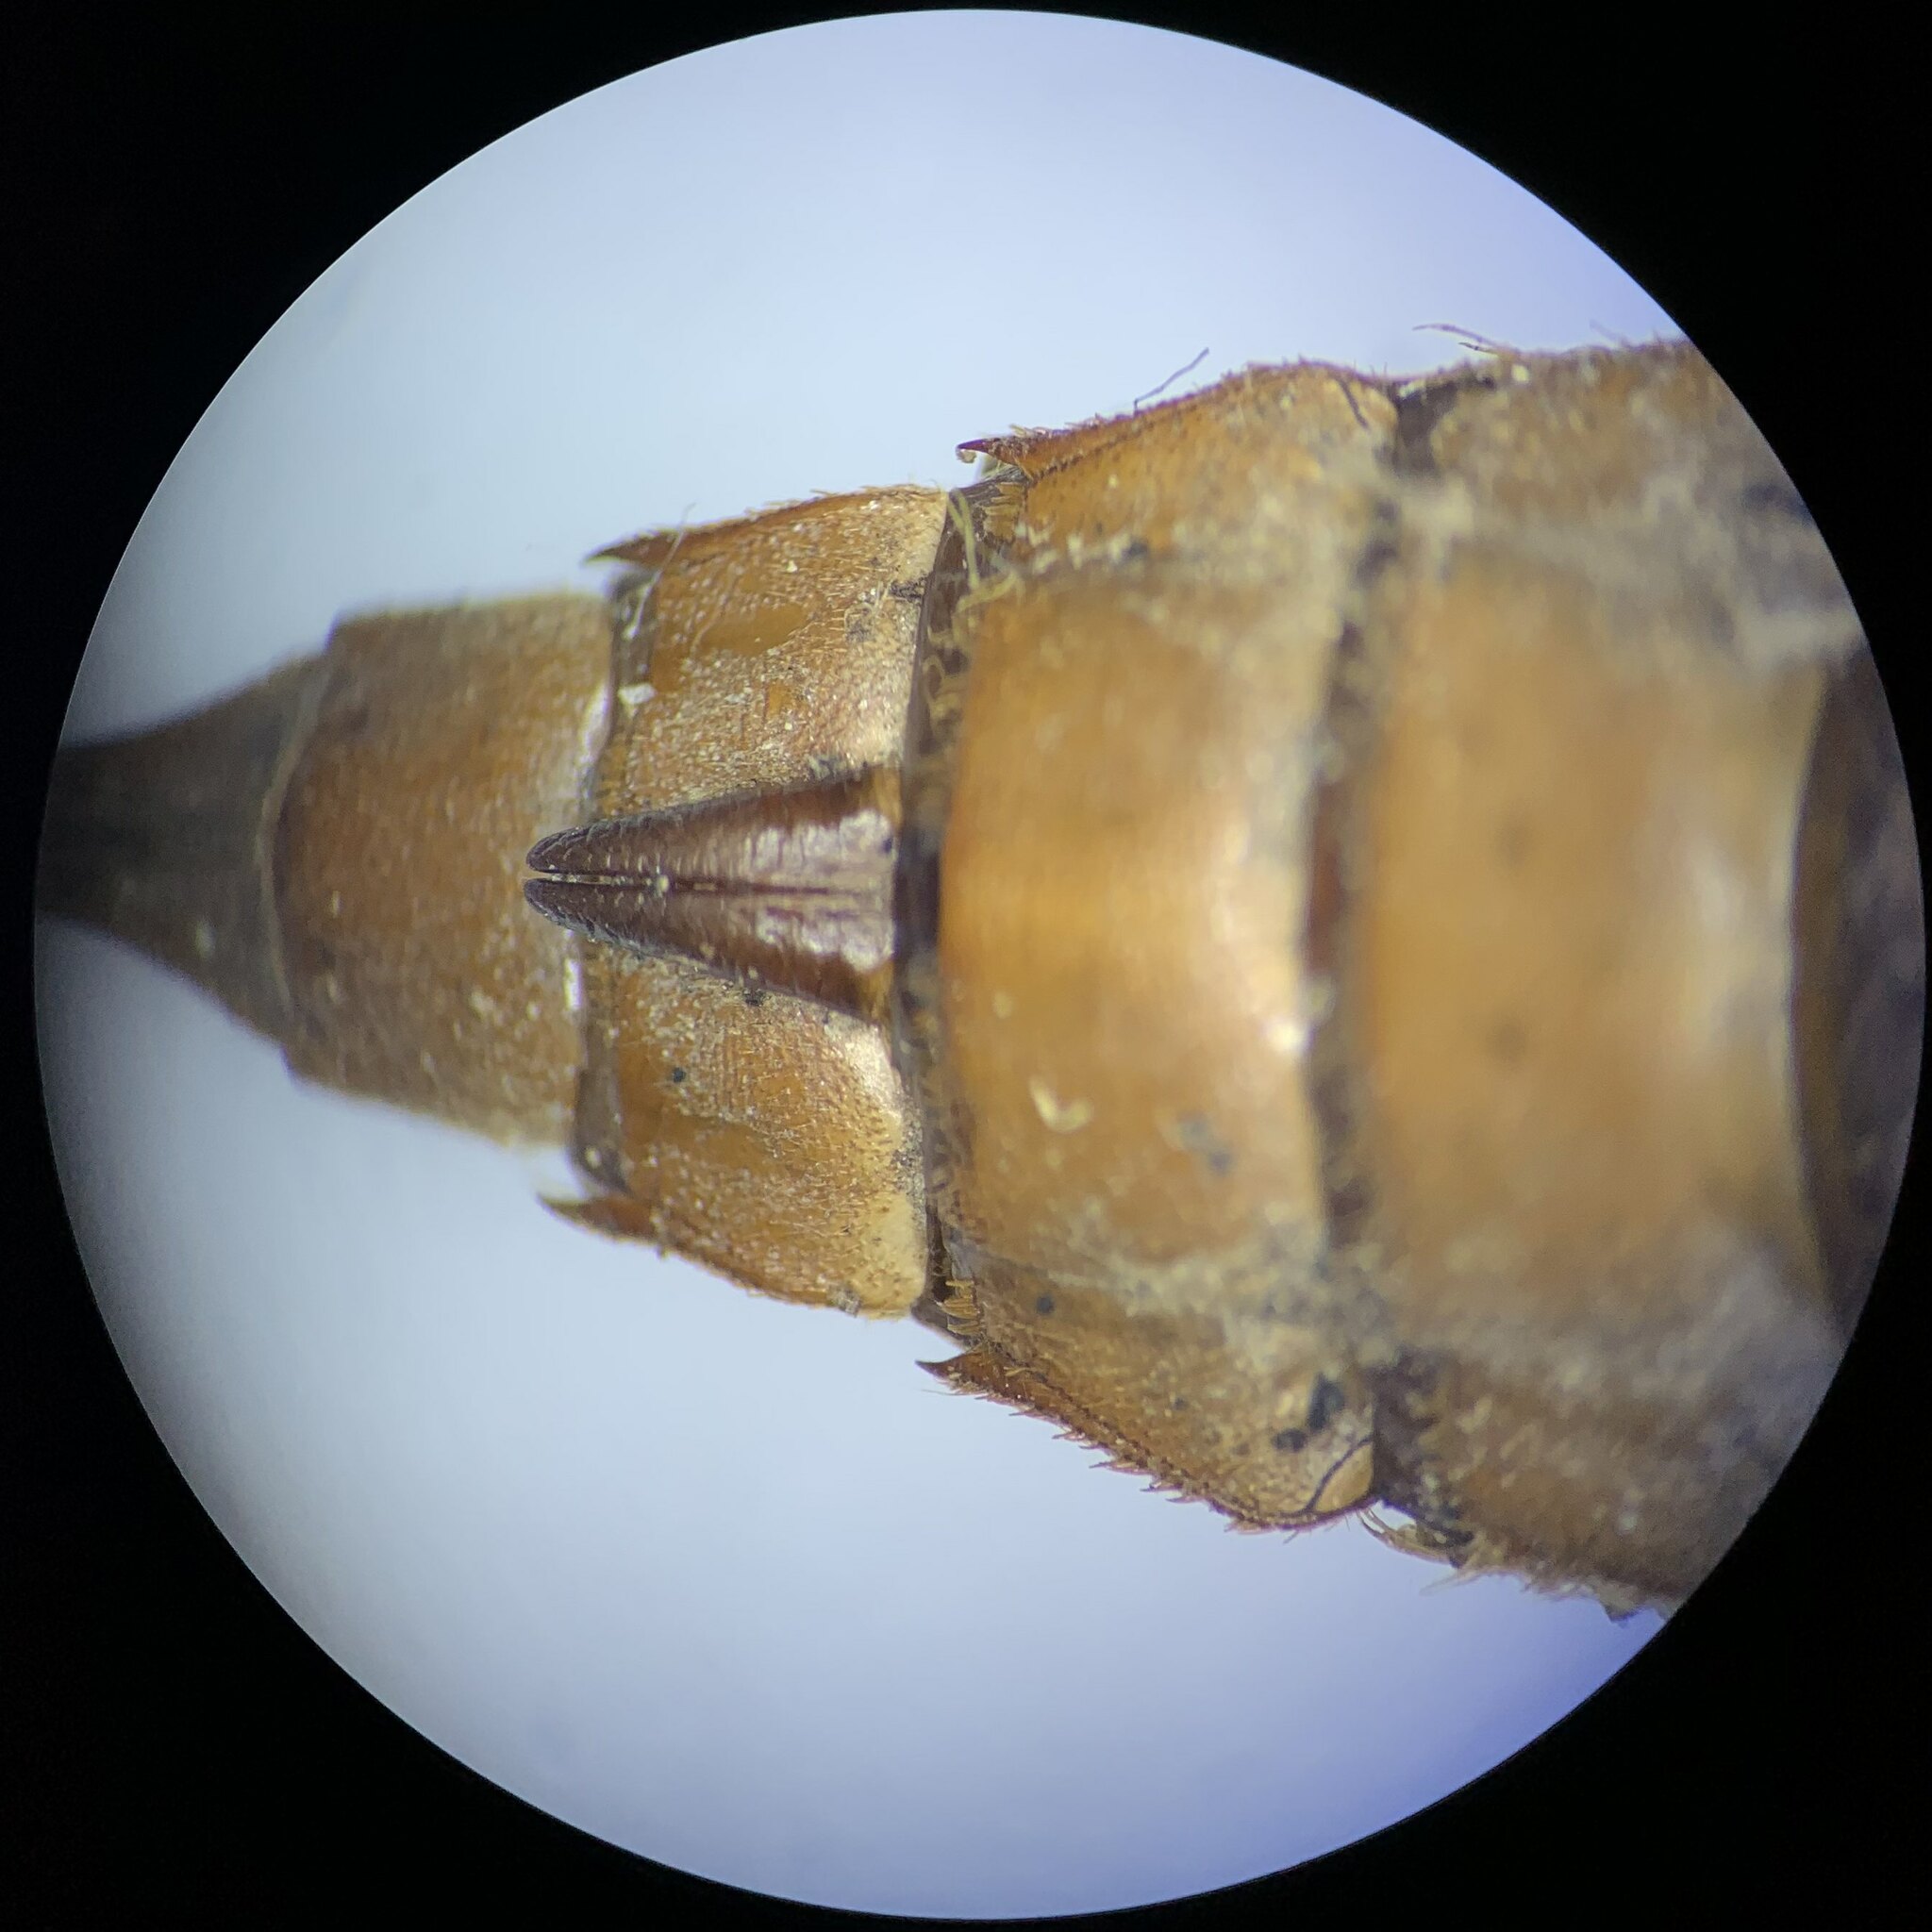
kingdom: Animalia
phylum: Arthropoda
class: Insecta
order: Odonata
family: Cordulegastridae
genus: Cordulegaster
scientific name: Cordulegaster boltonii
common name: Golden-ringed dragonfly
